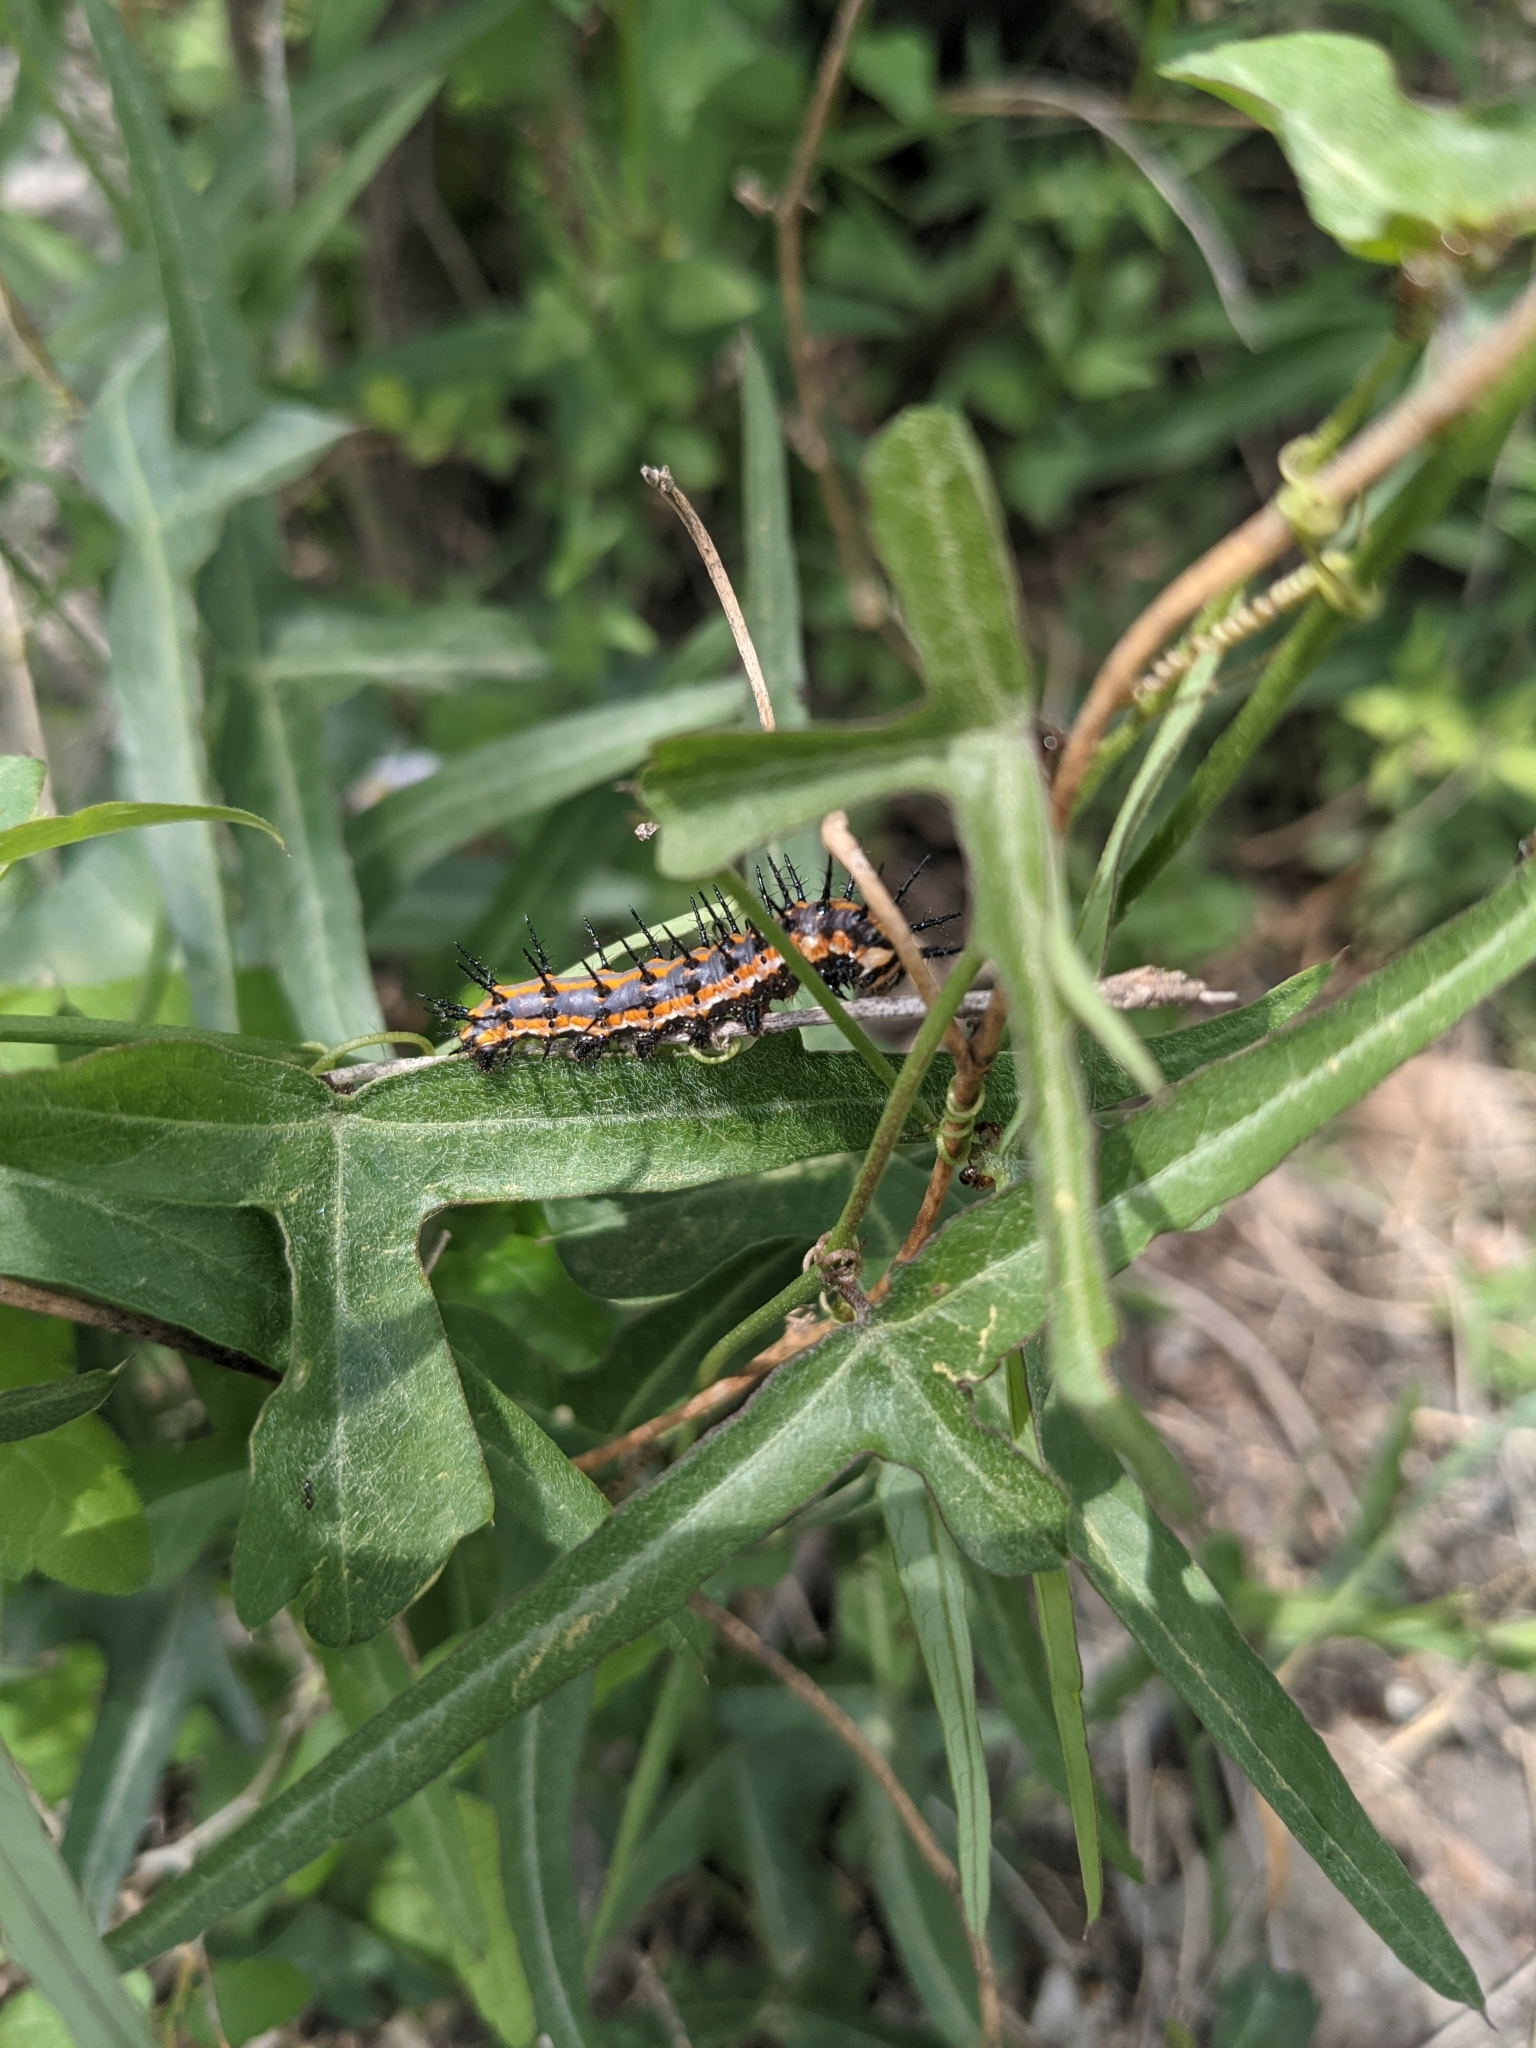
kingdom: Animalia
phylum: Arthropoda
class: Insecta
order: Lepidoptera
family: Nymphalidae
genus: Dione
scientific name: Dione vanillae
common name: Gulf fritillary
